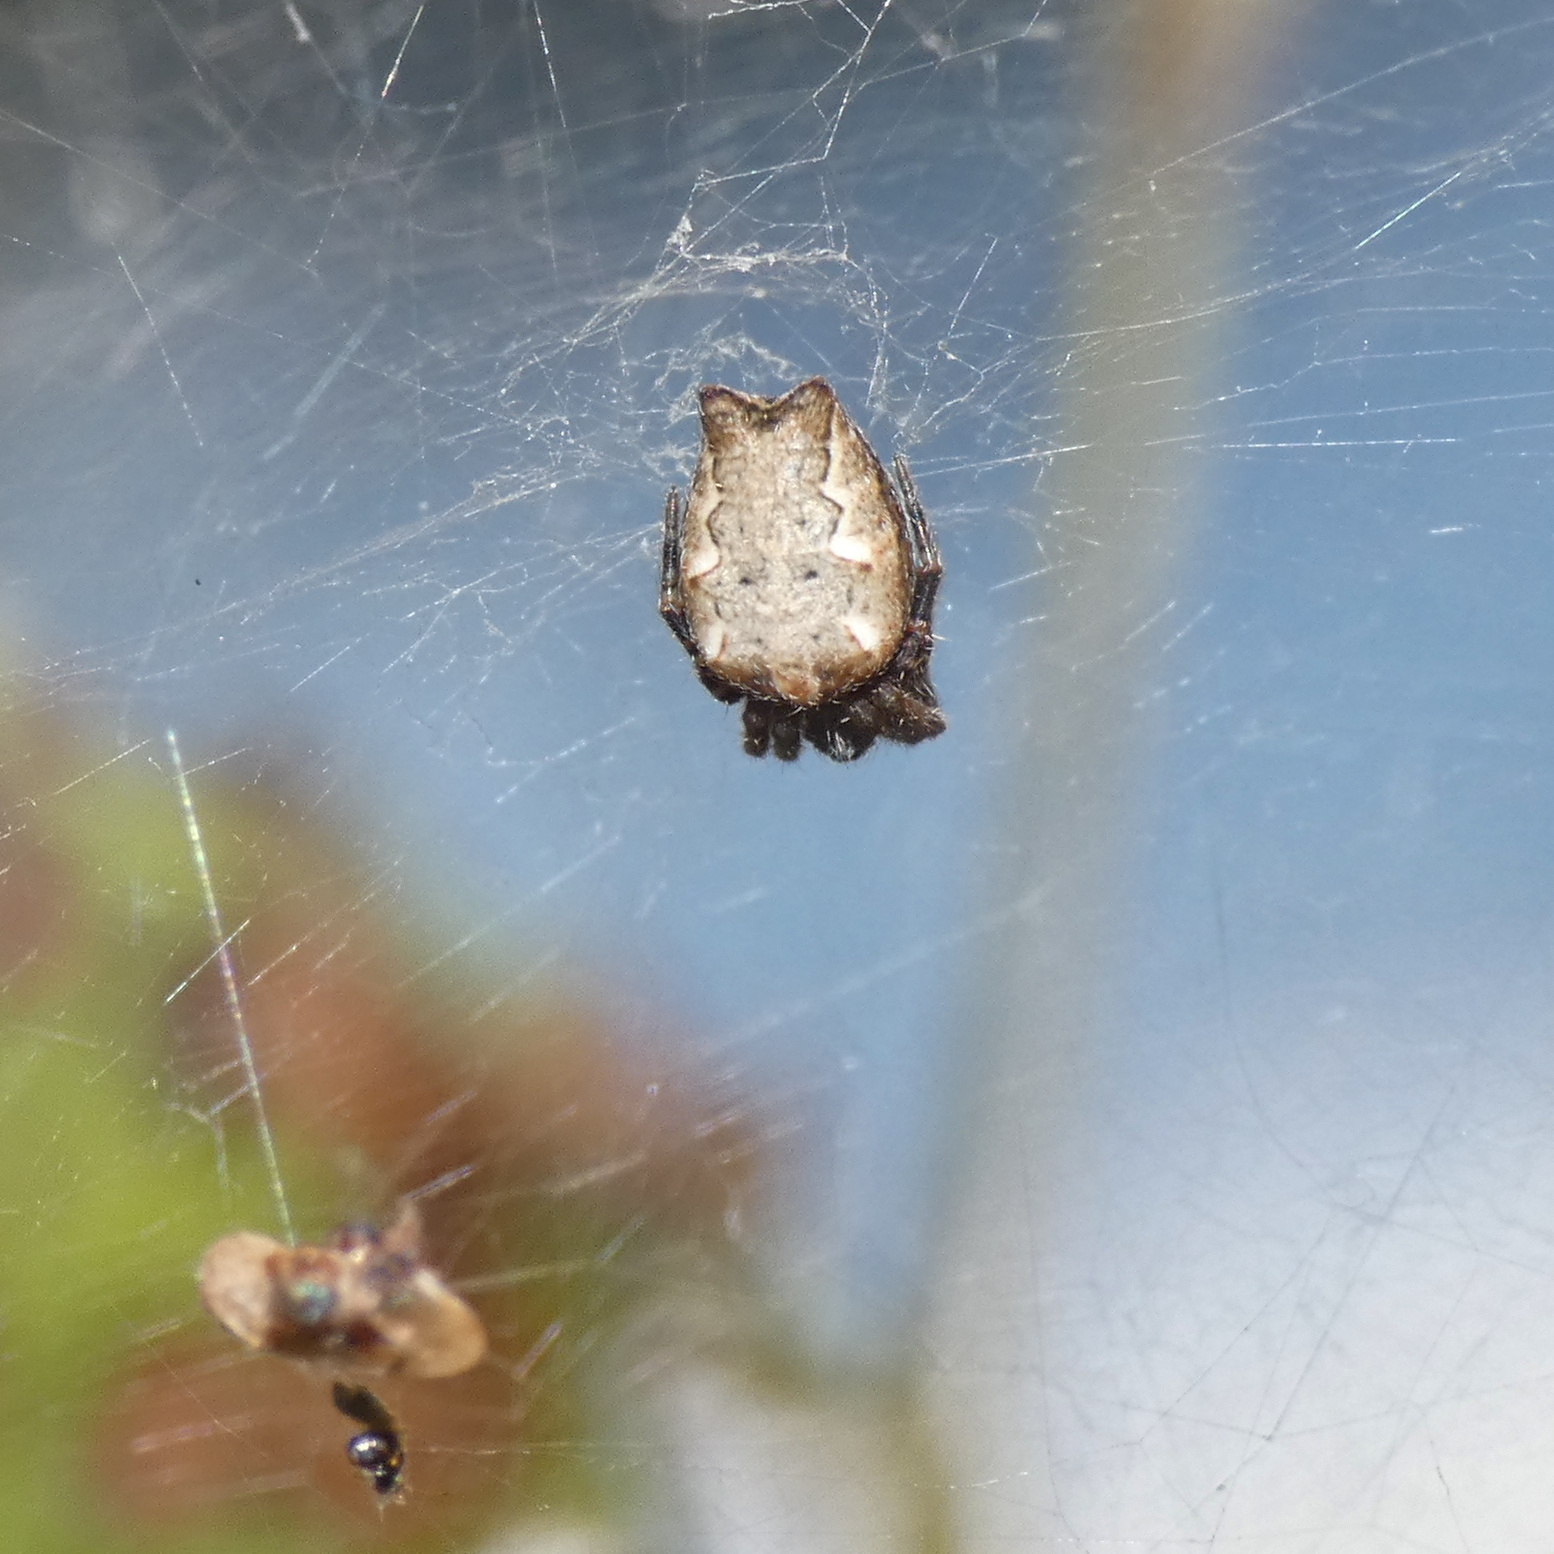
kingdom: Animalia
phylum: Arthropoda
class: Arachnida
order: Araneae
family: Araneidae
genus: Cyrtophora
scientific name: Cyrtophora citricola
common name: Orb weavers
